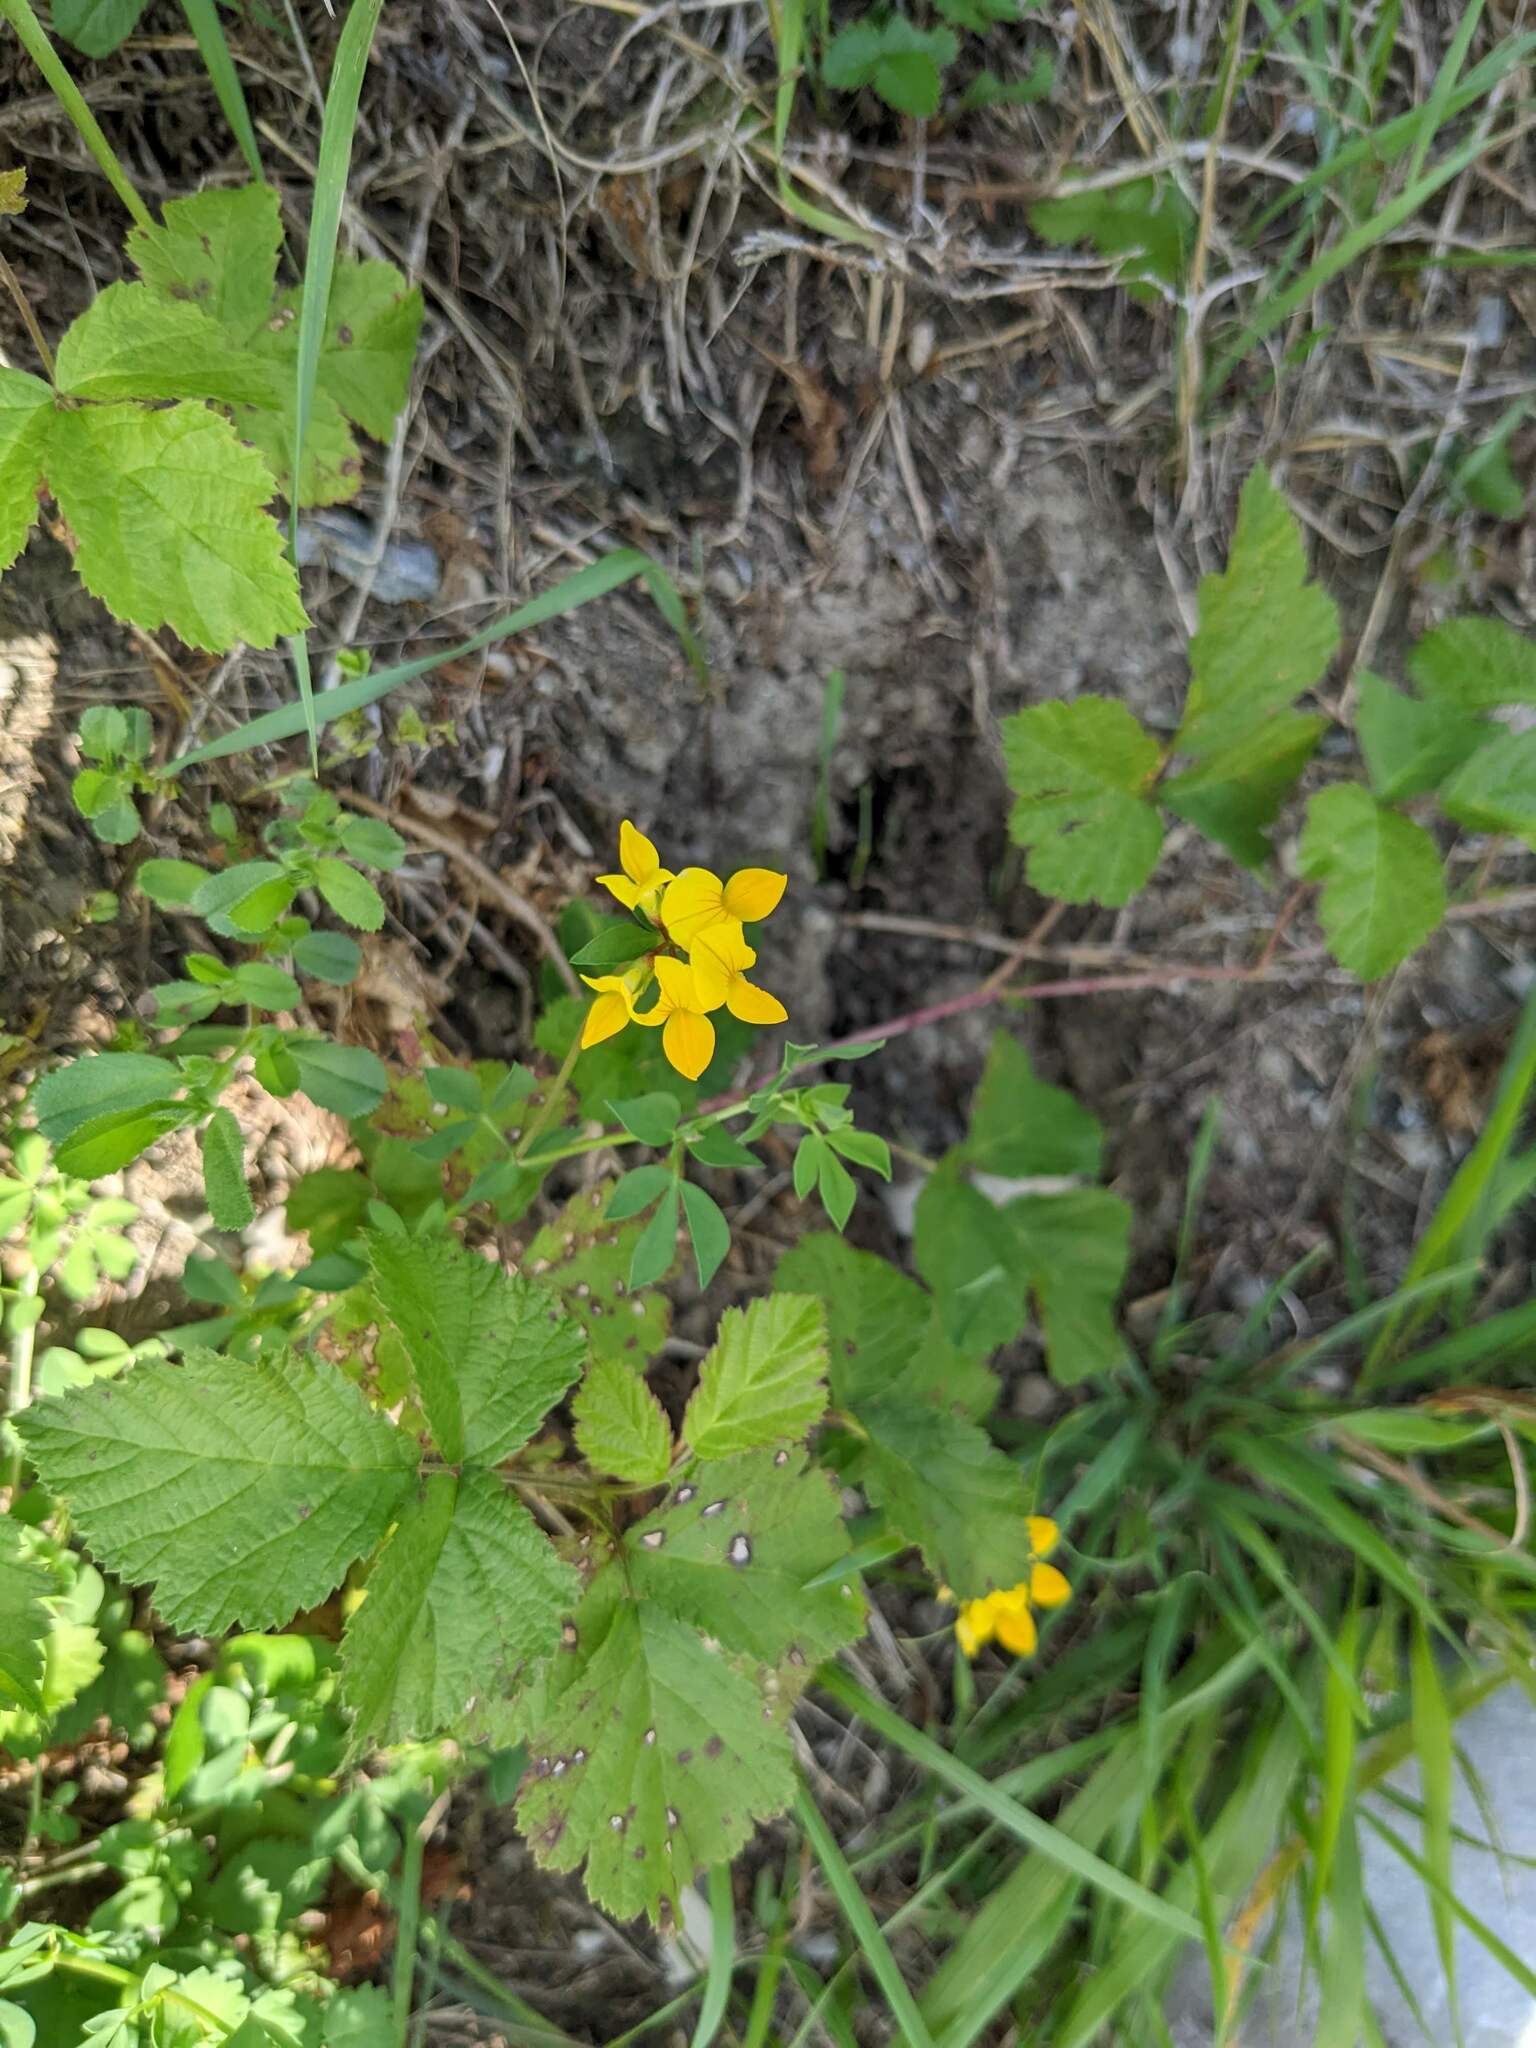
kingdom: Plantae
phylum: Tracheophyta
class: Magnoliopsida
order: Fabales
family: Fabaceae
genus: Lotus
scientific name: Lotus corniculatus
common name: Common bird's-foot-trefoil
